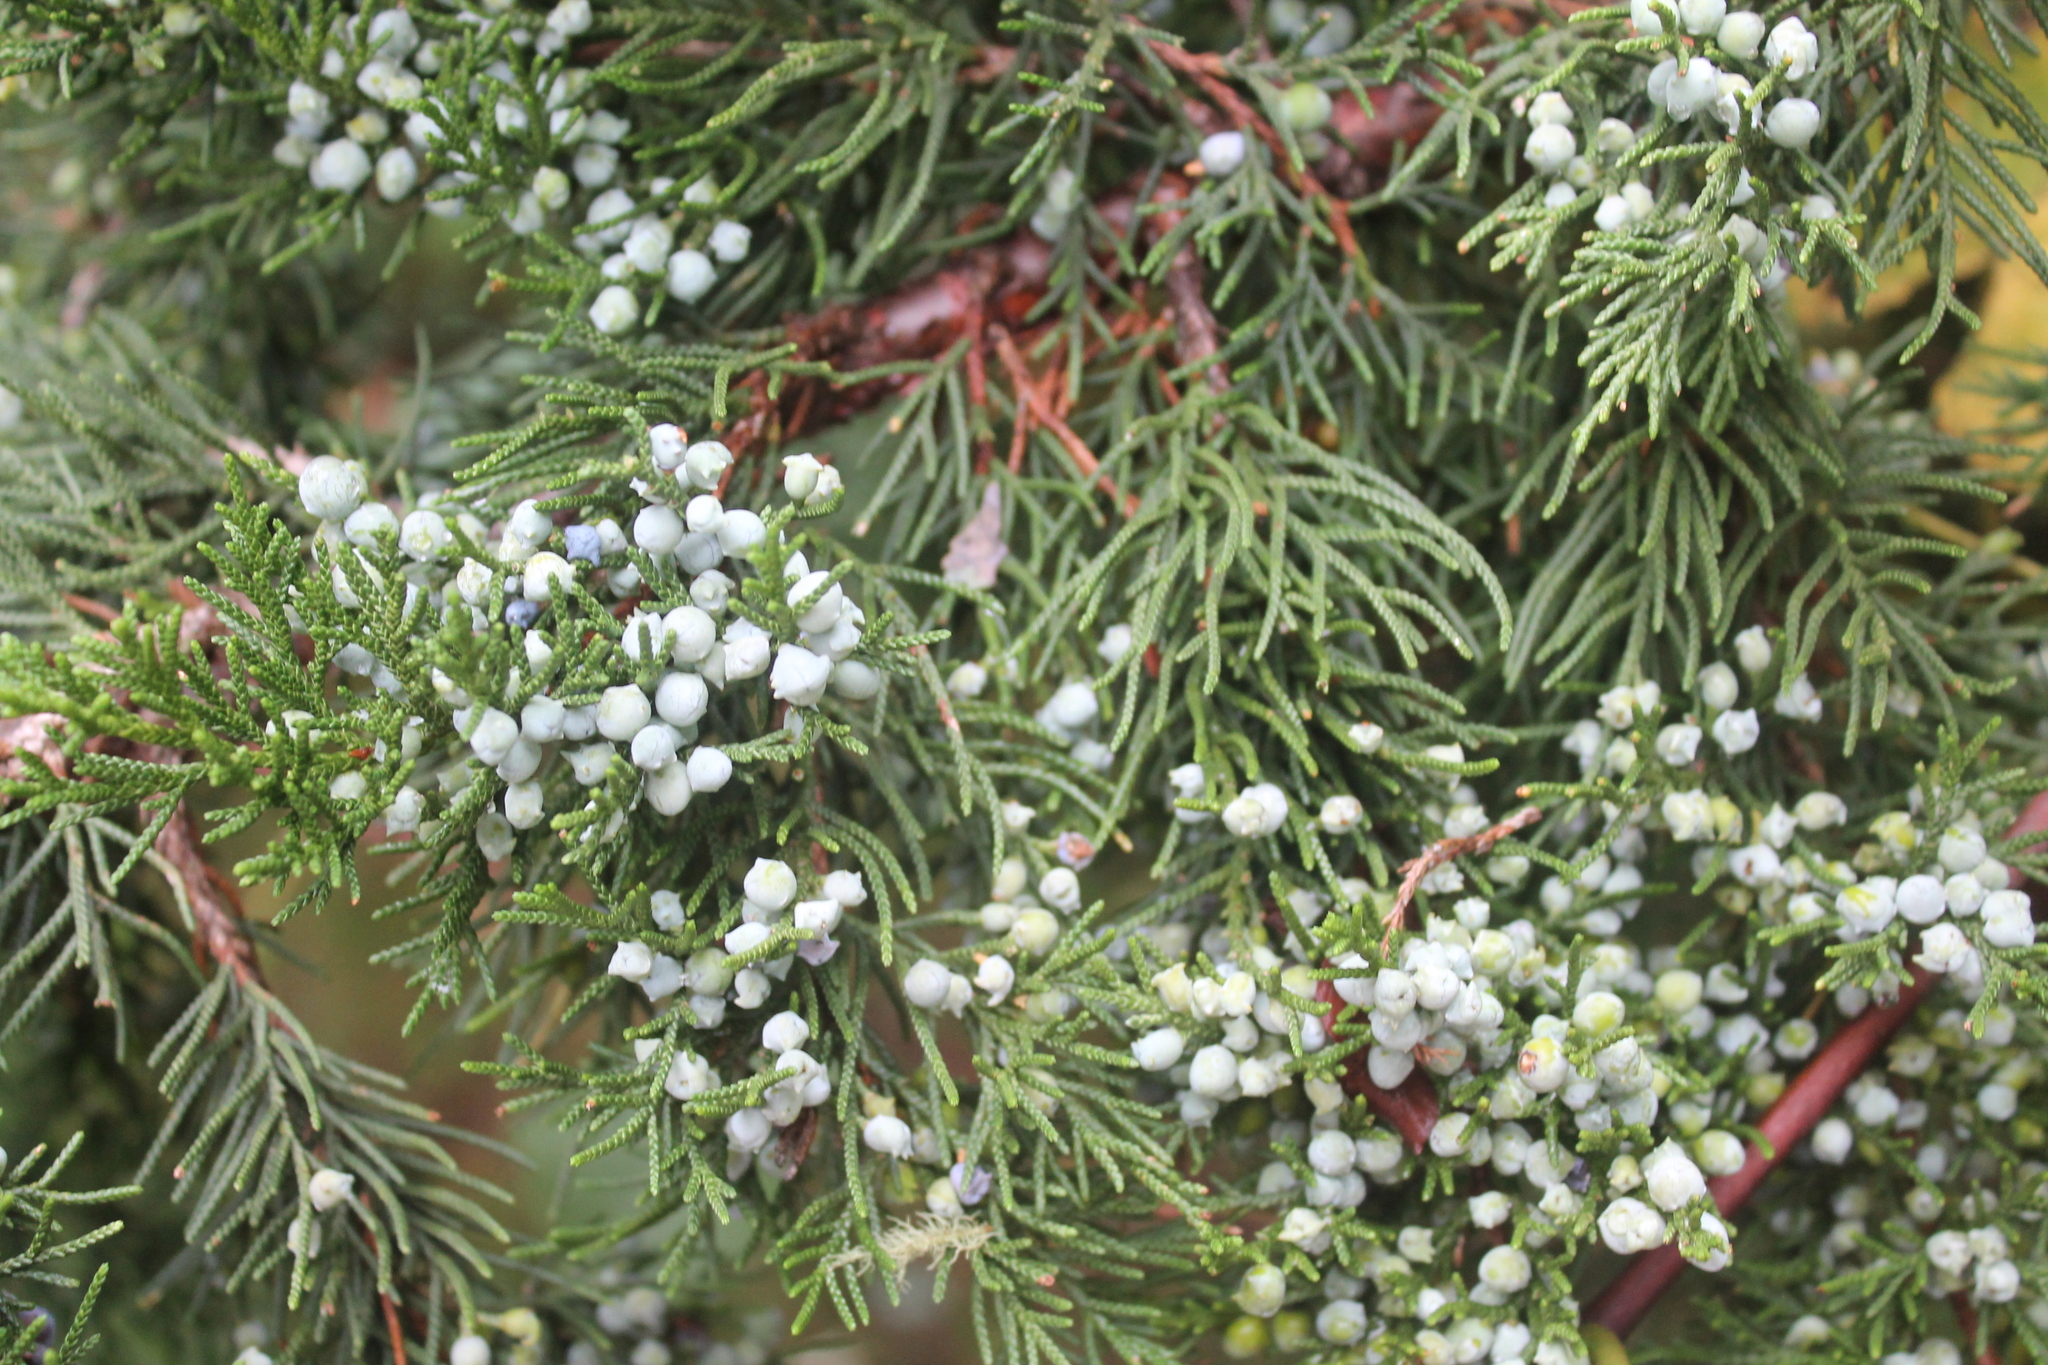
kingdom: Plantae
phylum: Tracheophyta
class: Pinopsida
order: Pinales
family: Cupressaceae
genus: Juniperus
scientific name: Juniperus virginiana
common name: Red juniper
